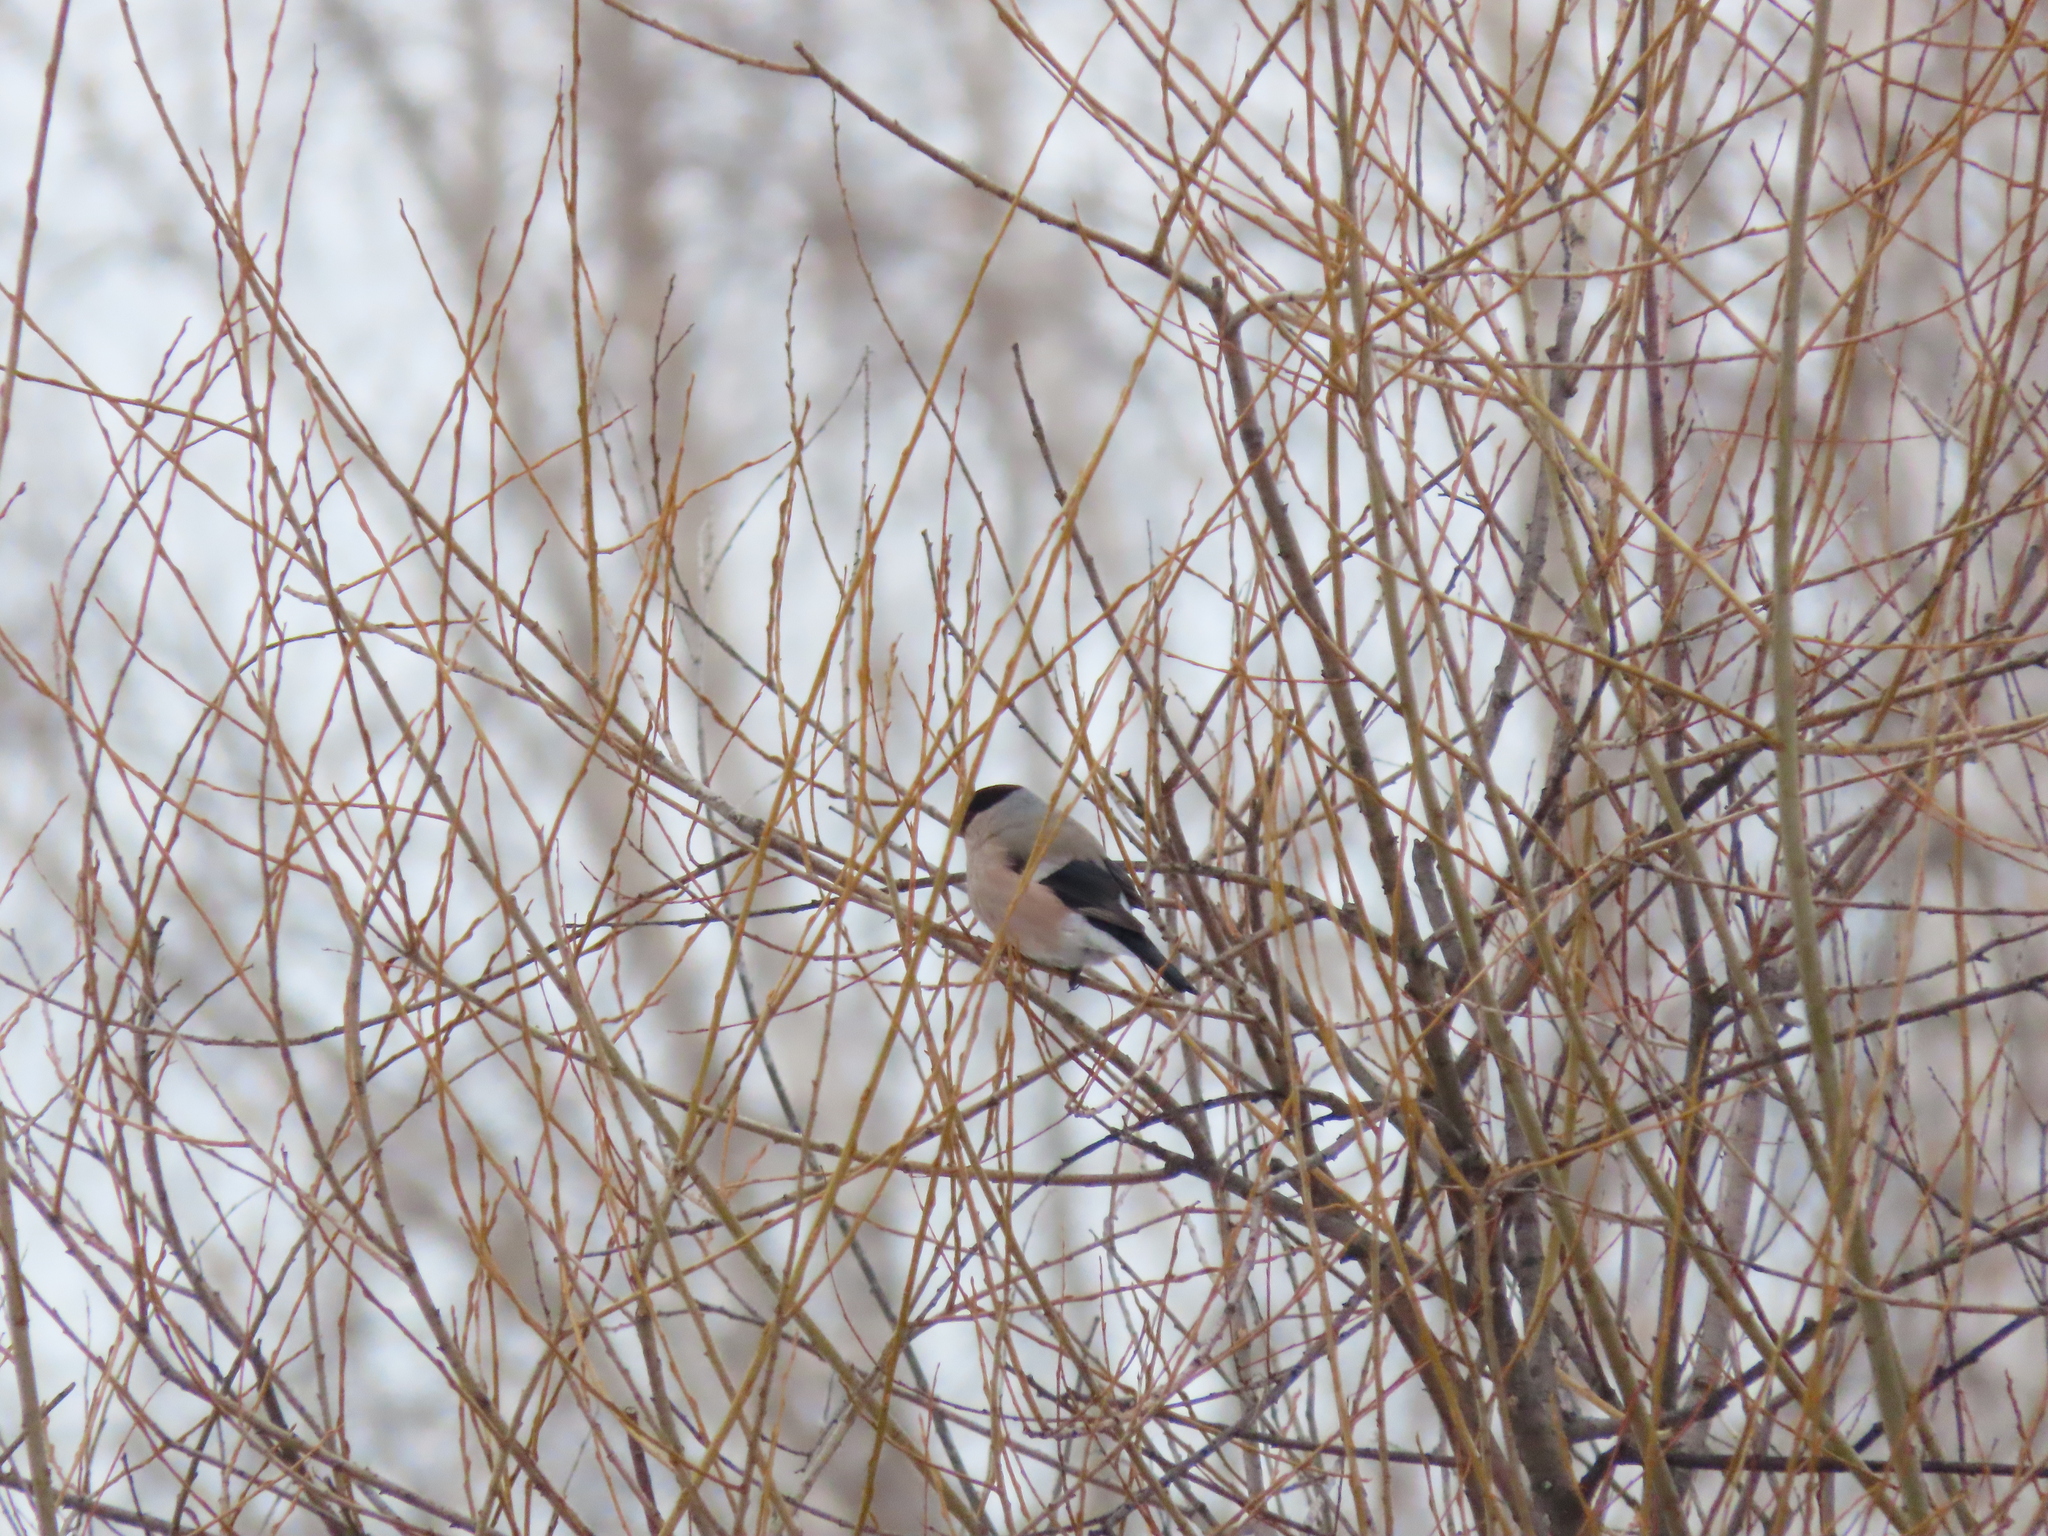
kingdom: Animalia
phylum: Chordata
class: Aves
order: Passeriformes
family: Fringillidae
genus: Pyrrhula
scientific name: Pyrrhula pyrrhula
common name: Eurasian bullfinch
